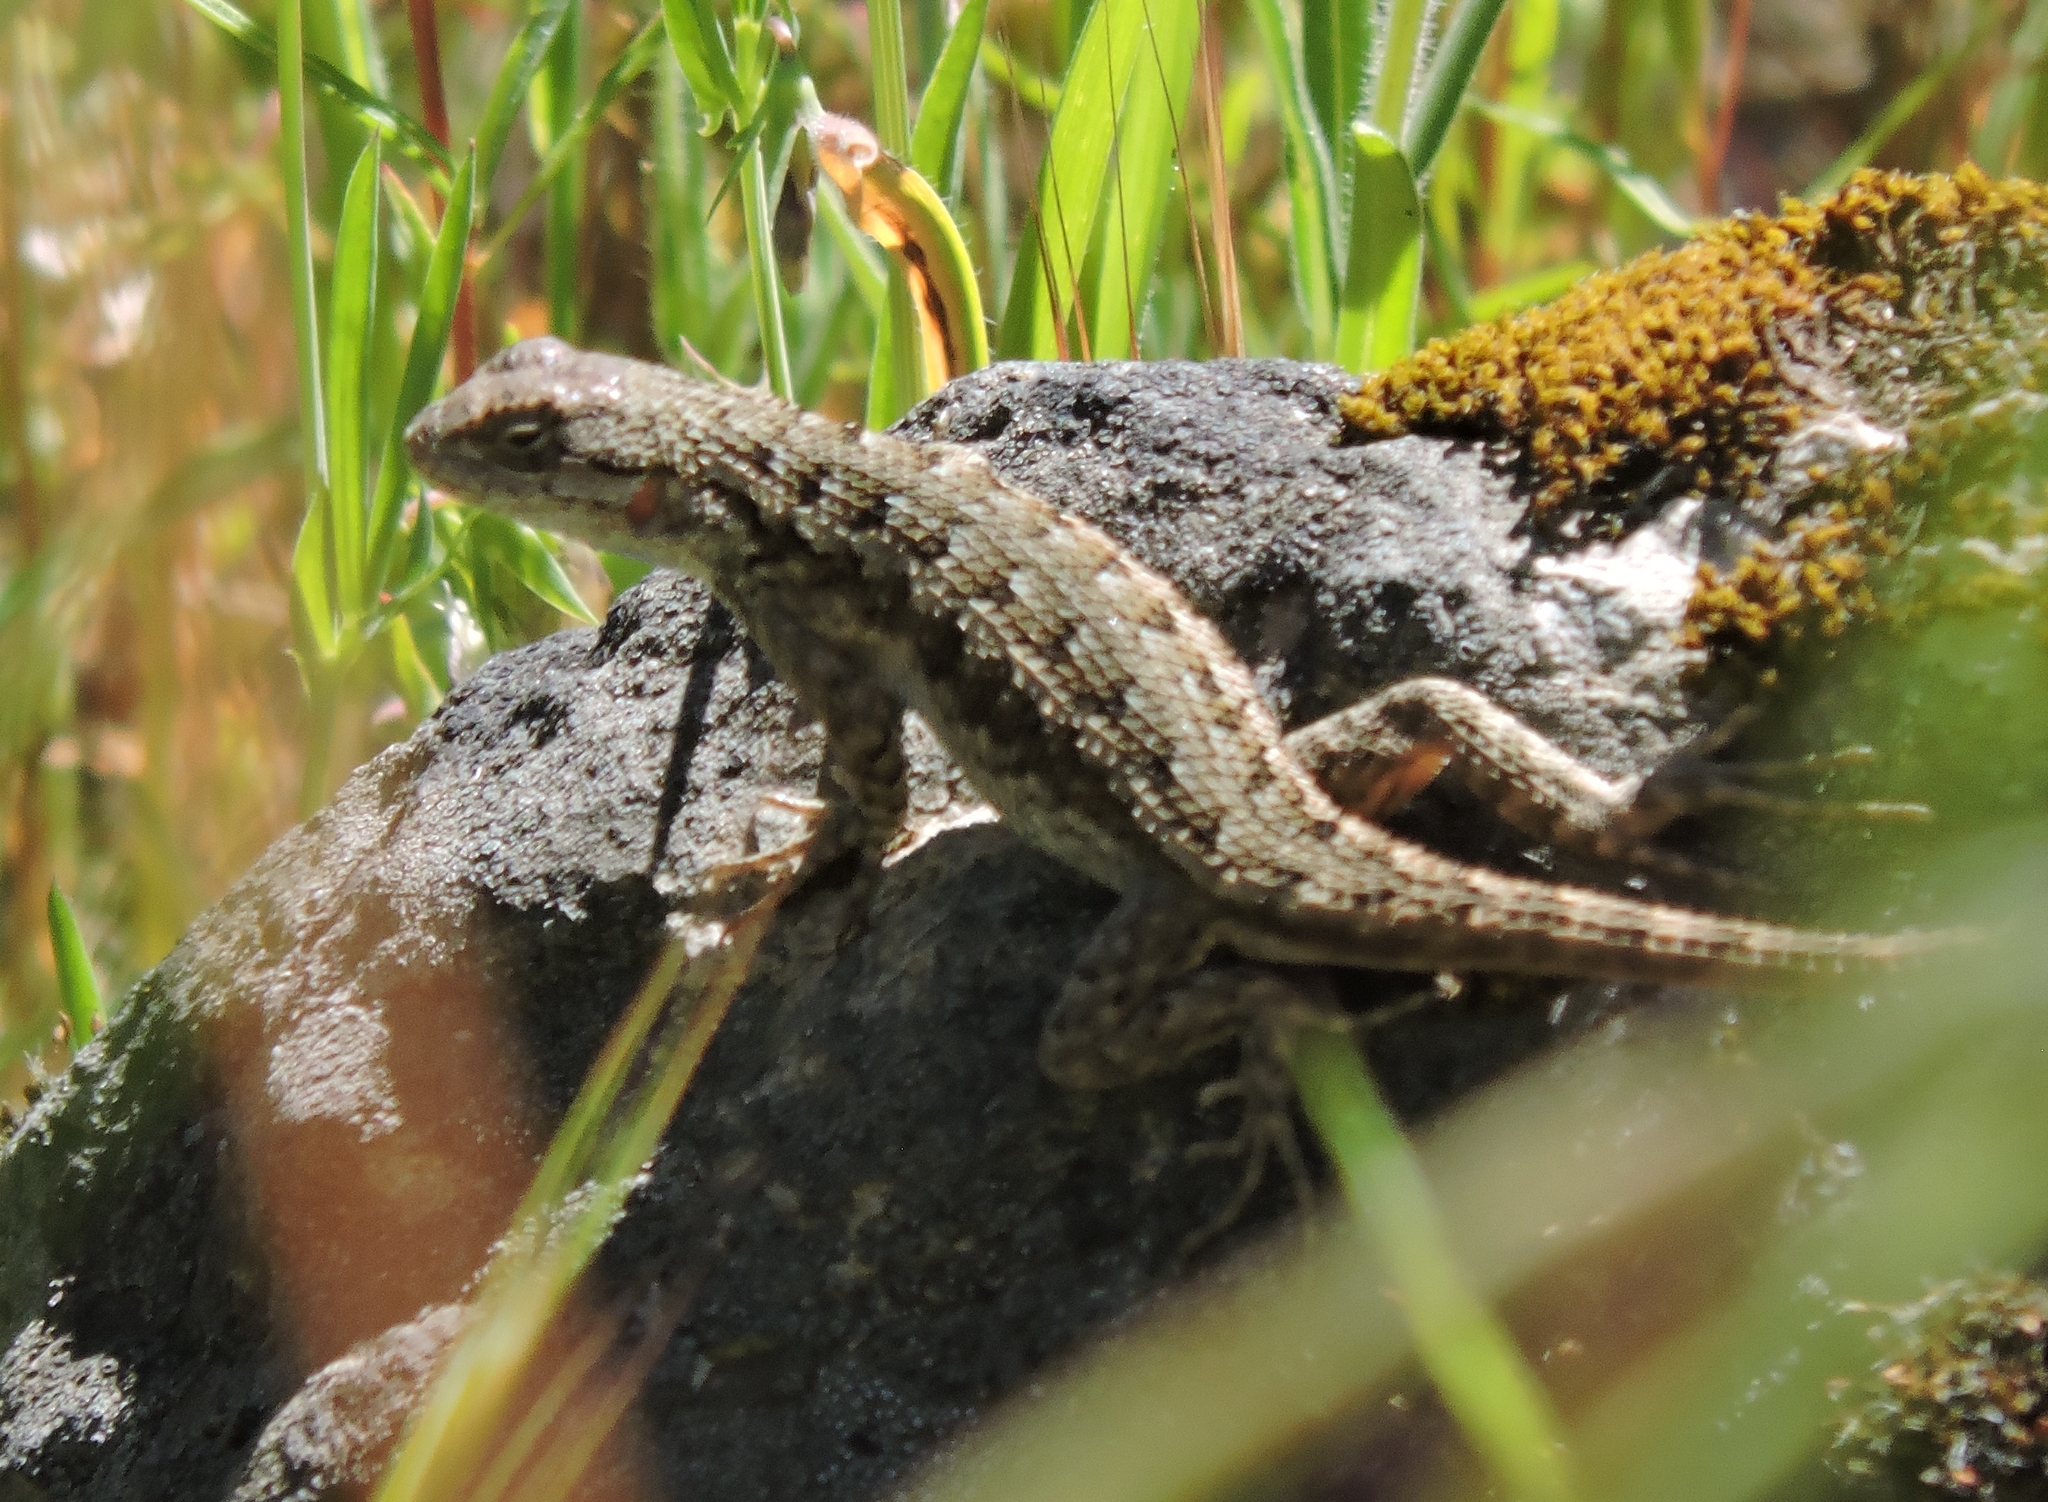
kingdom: Animalia
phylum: Chordata
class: Squamata
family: Phrynosomatidae
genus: Sceloporus
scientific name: Sceloporus occidentalis
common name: Western fence lizard
